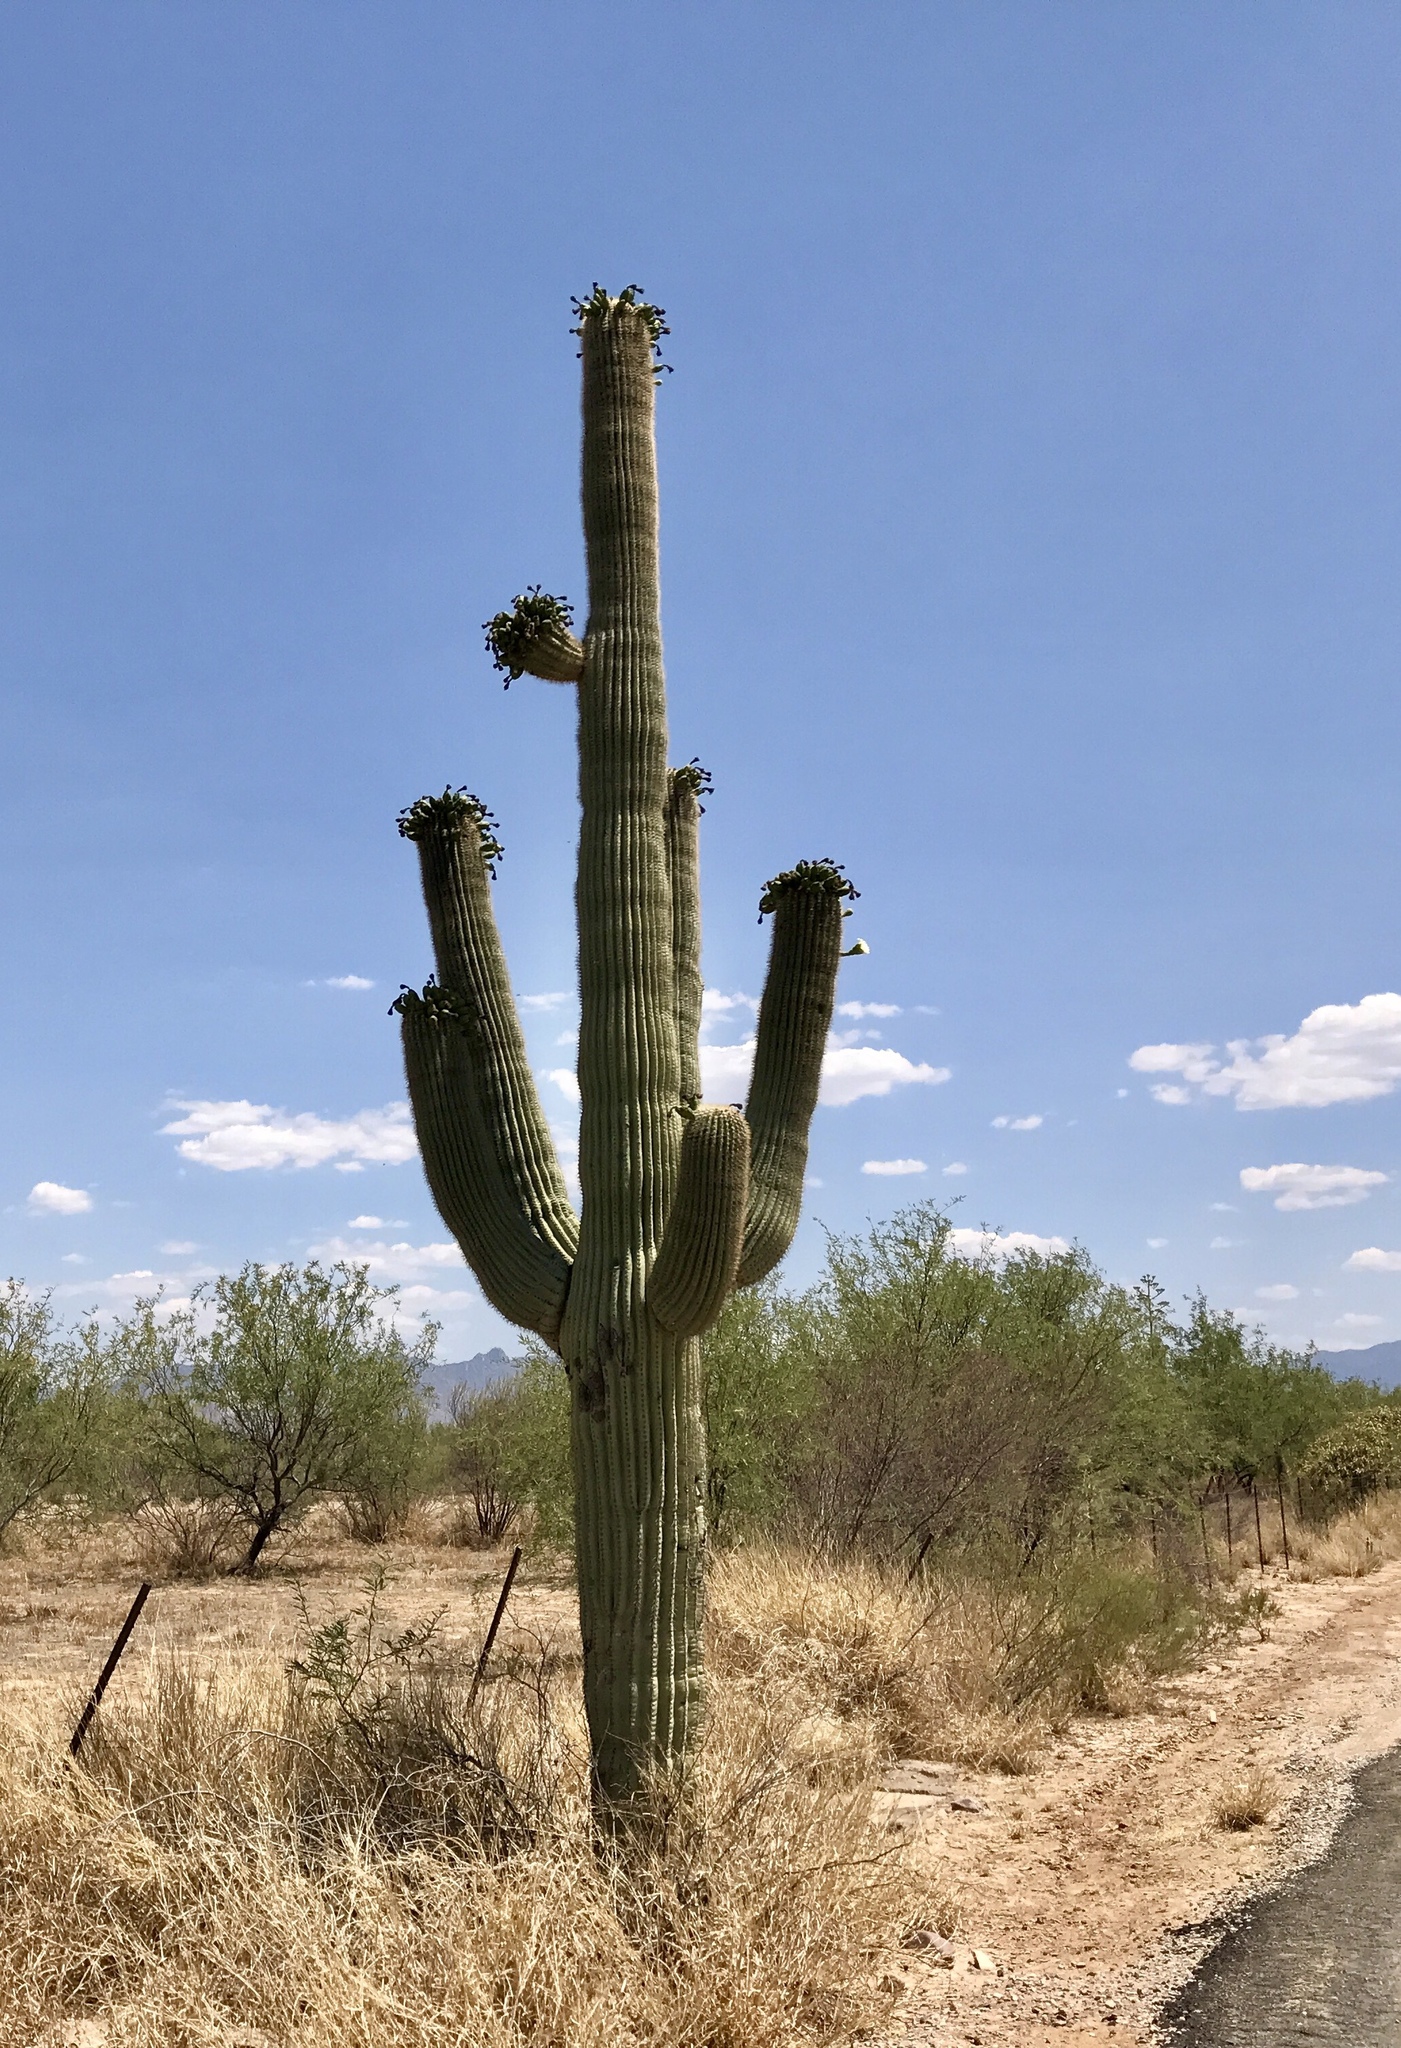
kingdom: Plantae
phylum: Tracheophyta
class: Magnoliopsida
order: Caryophyllales
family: Cactaceae
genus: Carnegiea
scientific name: Carnegiea gigantea
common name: Saguaro
